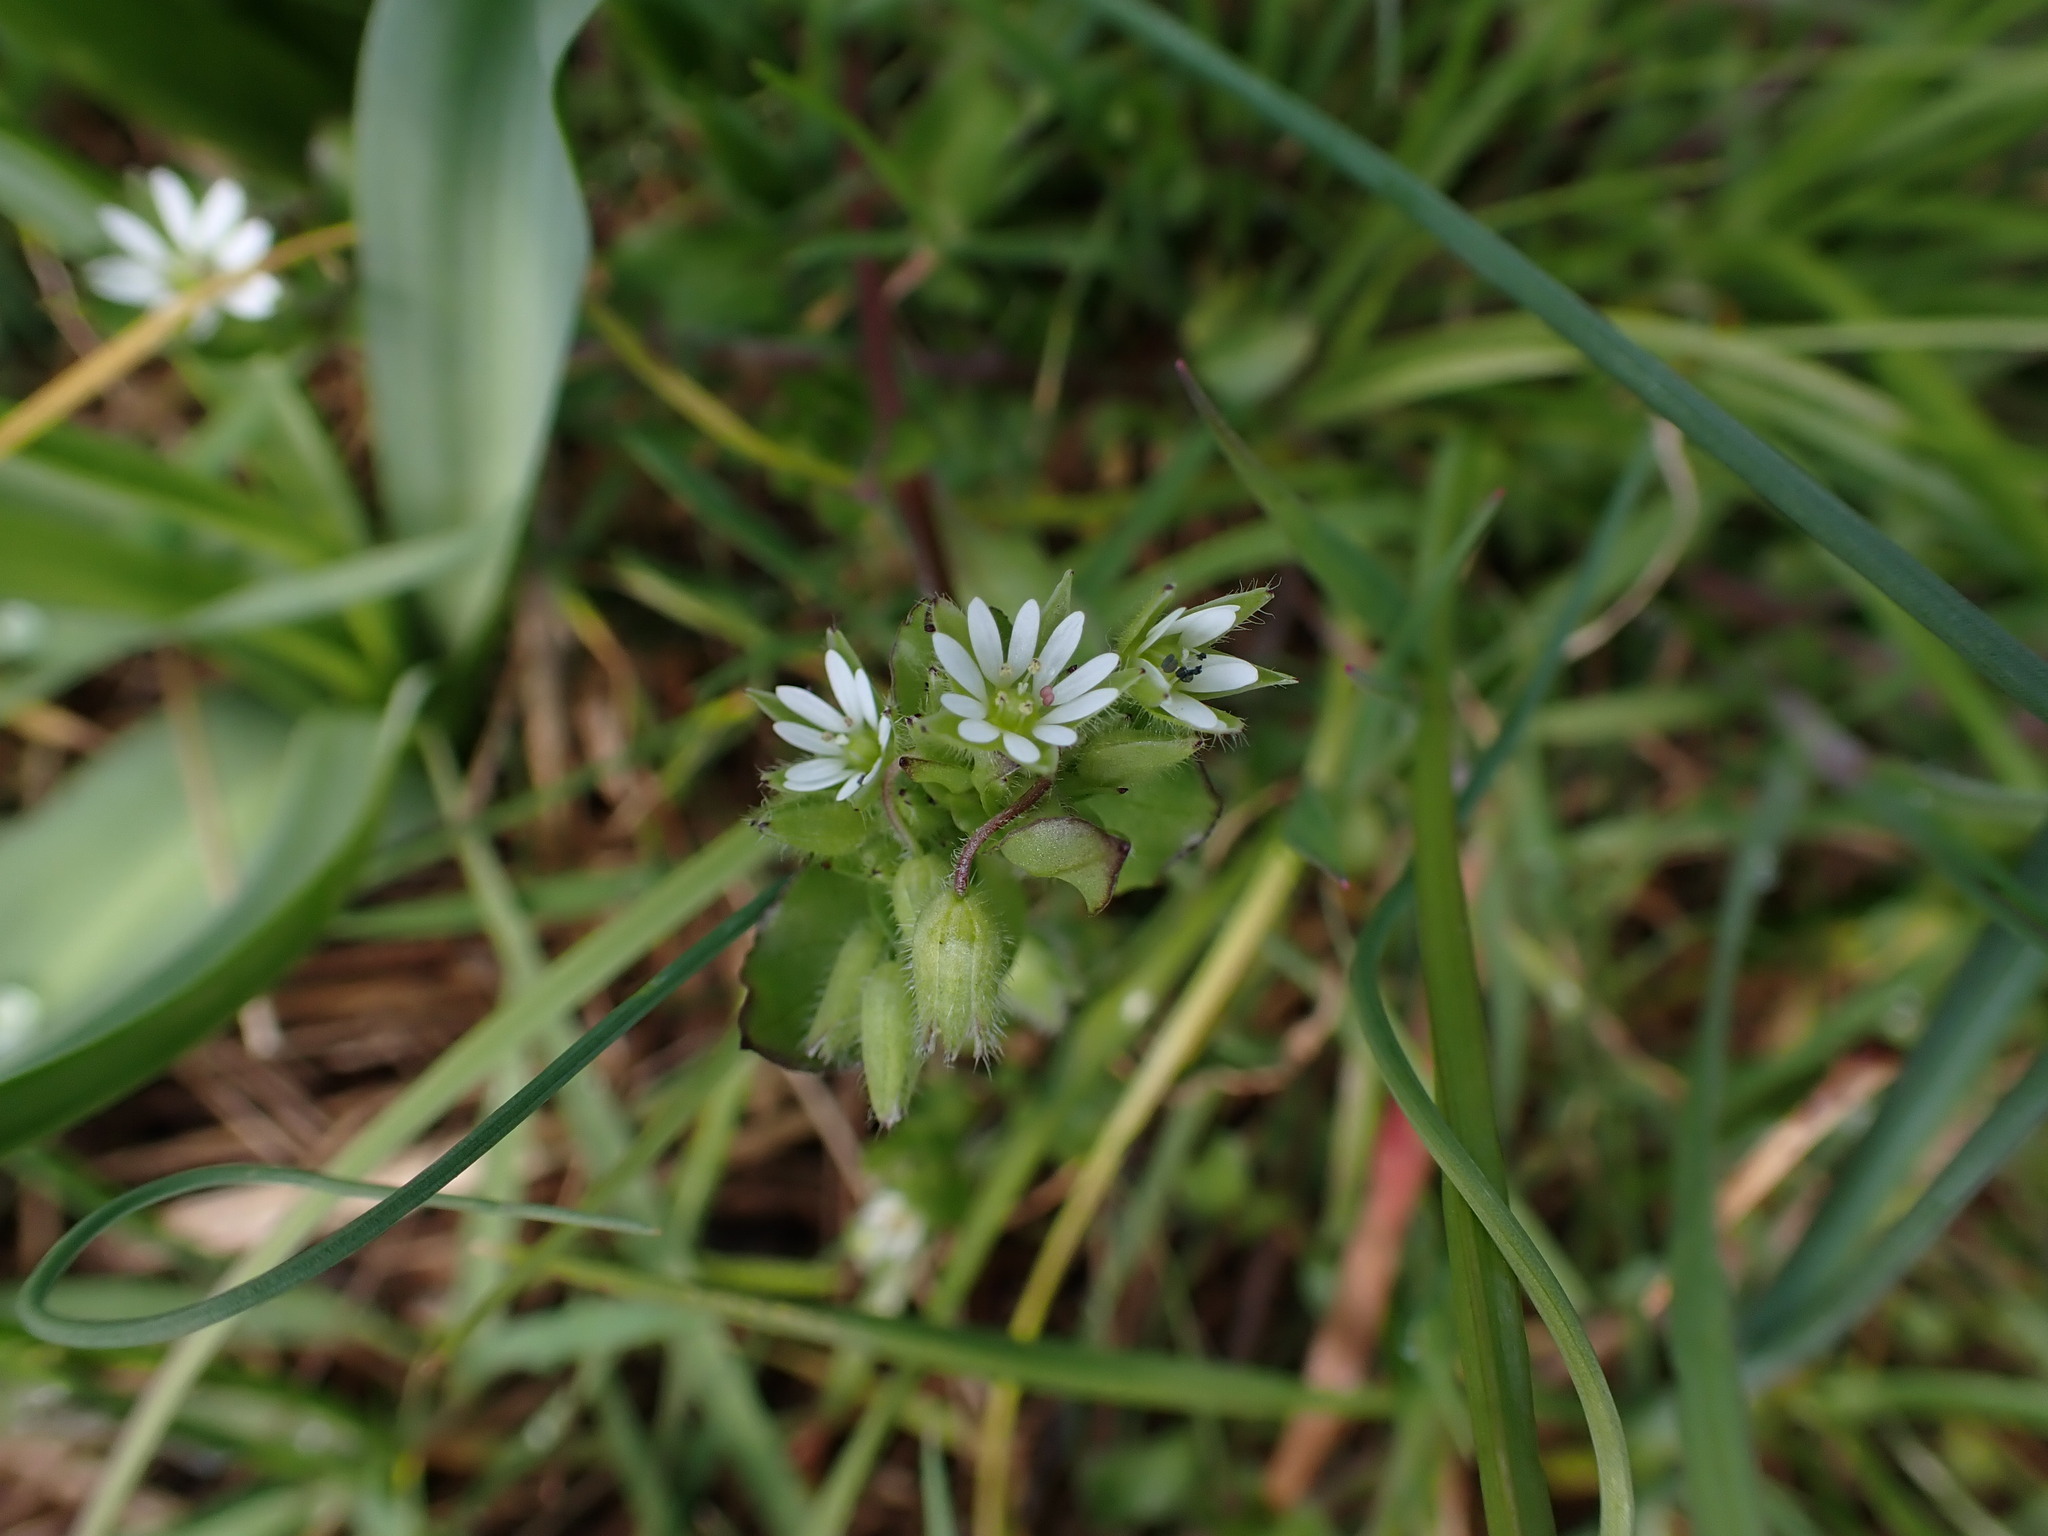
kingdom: Plantae
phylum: Tracheophyta
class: Magnoliopsida
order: Caryophyllales
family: Caryophyllaceae
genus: Stellaria
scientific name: Stellaria media
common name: Common chickweed
